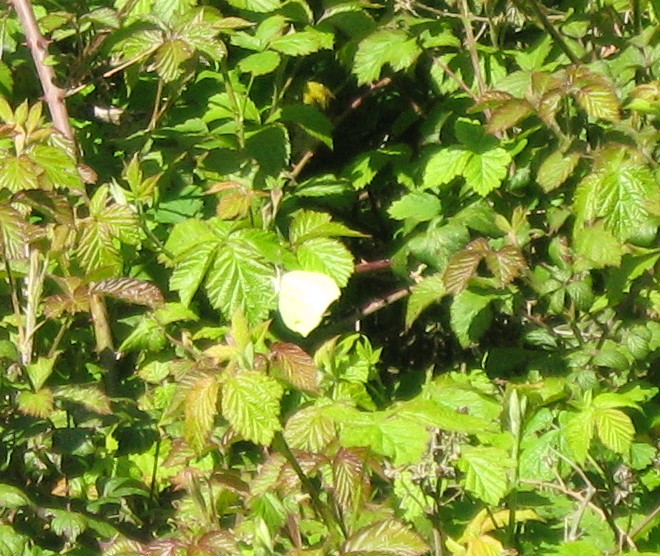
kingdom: Animalia
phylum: Arthropoda
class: Insecta
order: Lepidoptera
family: Pieridae
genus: Gonepteryx
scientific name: Gonepteryx rhamni
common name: Brimstone
